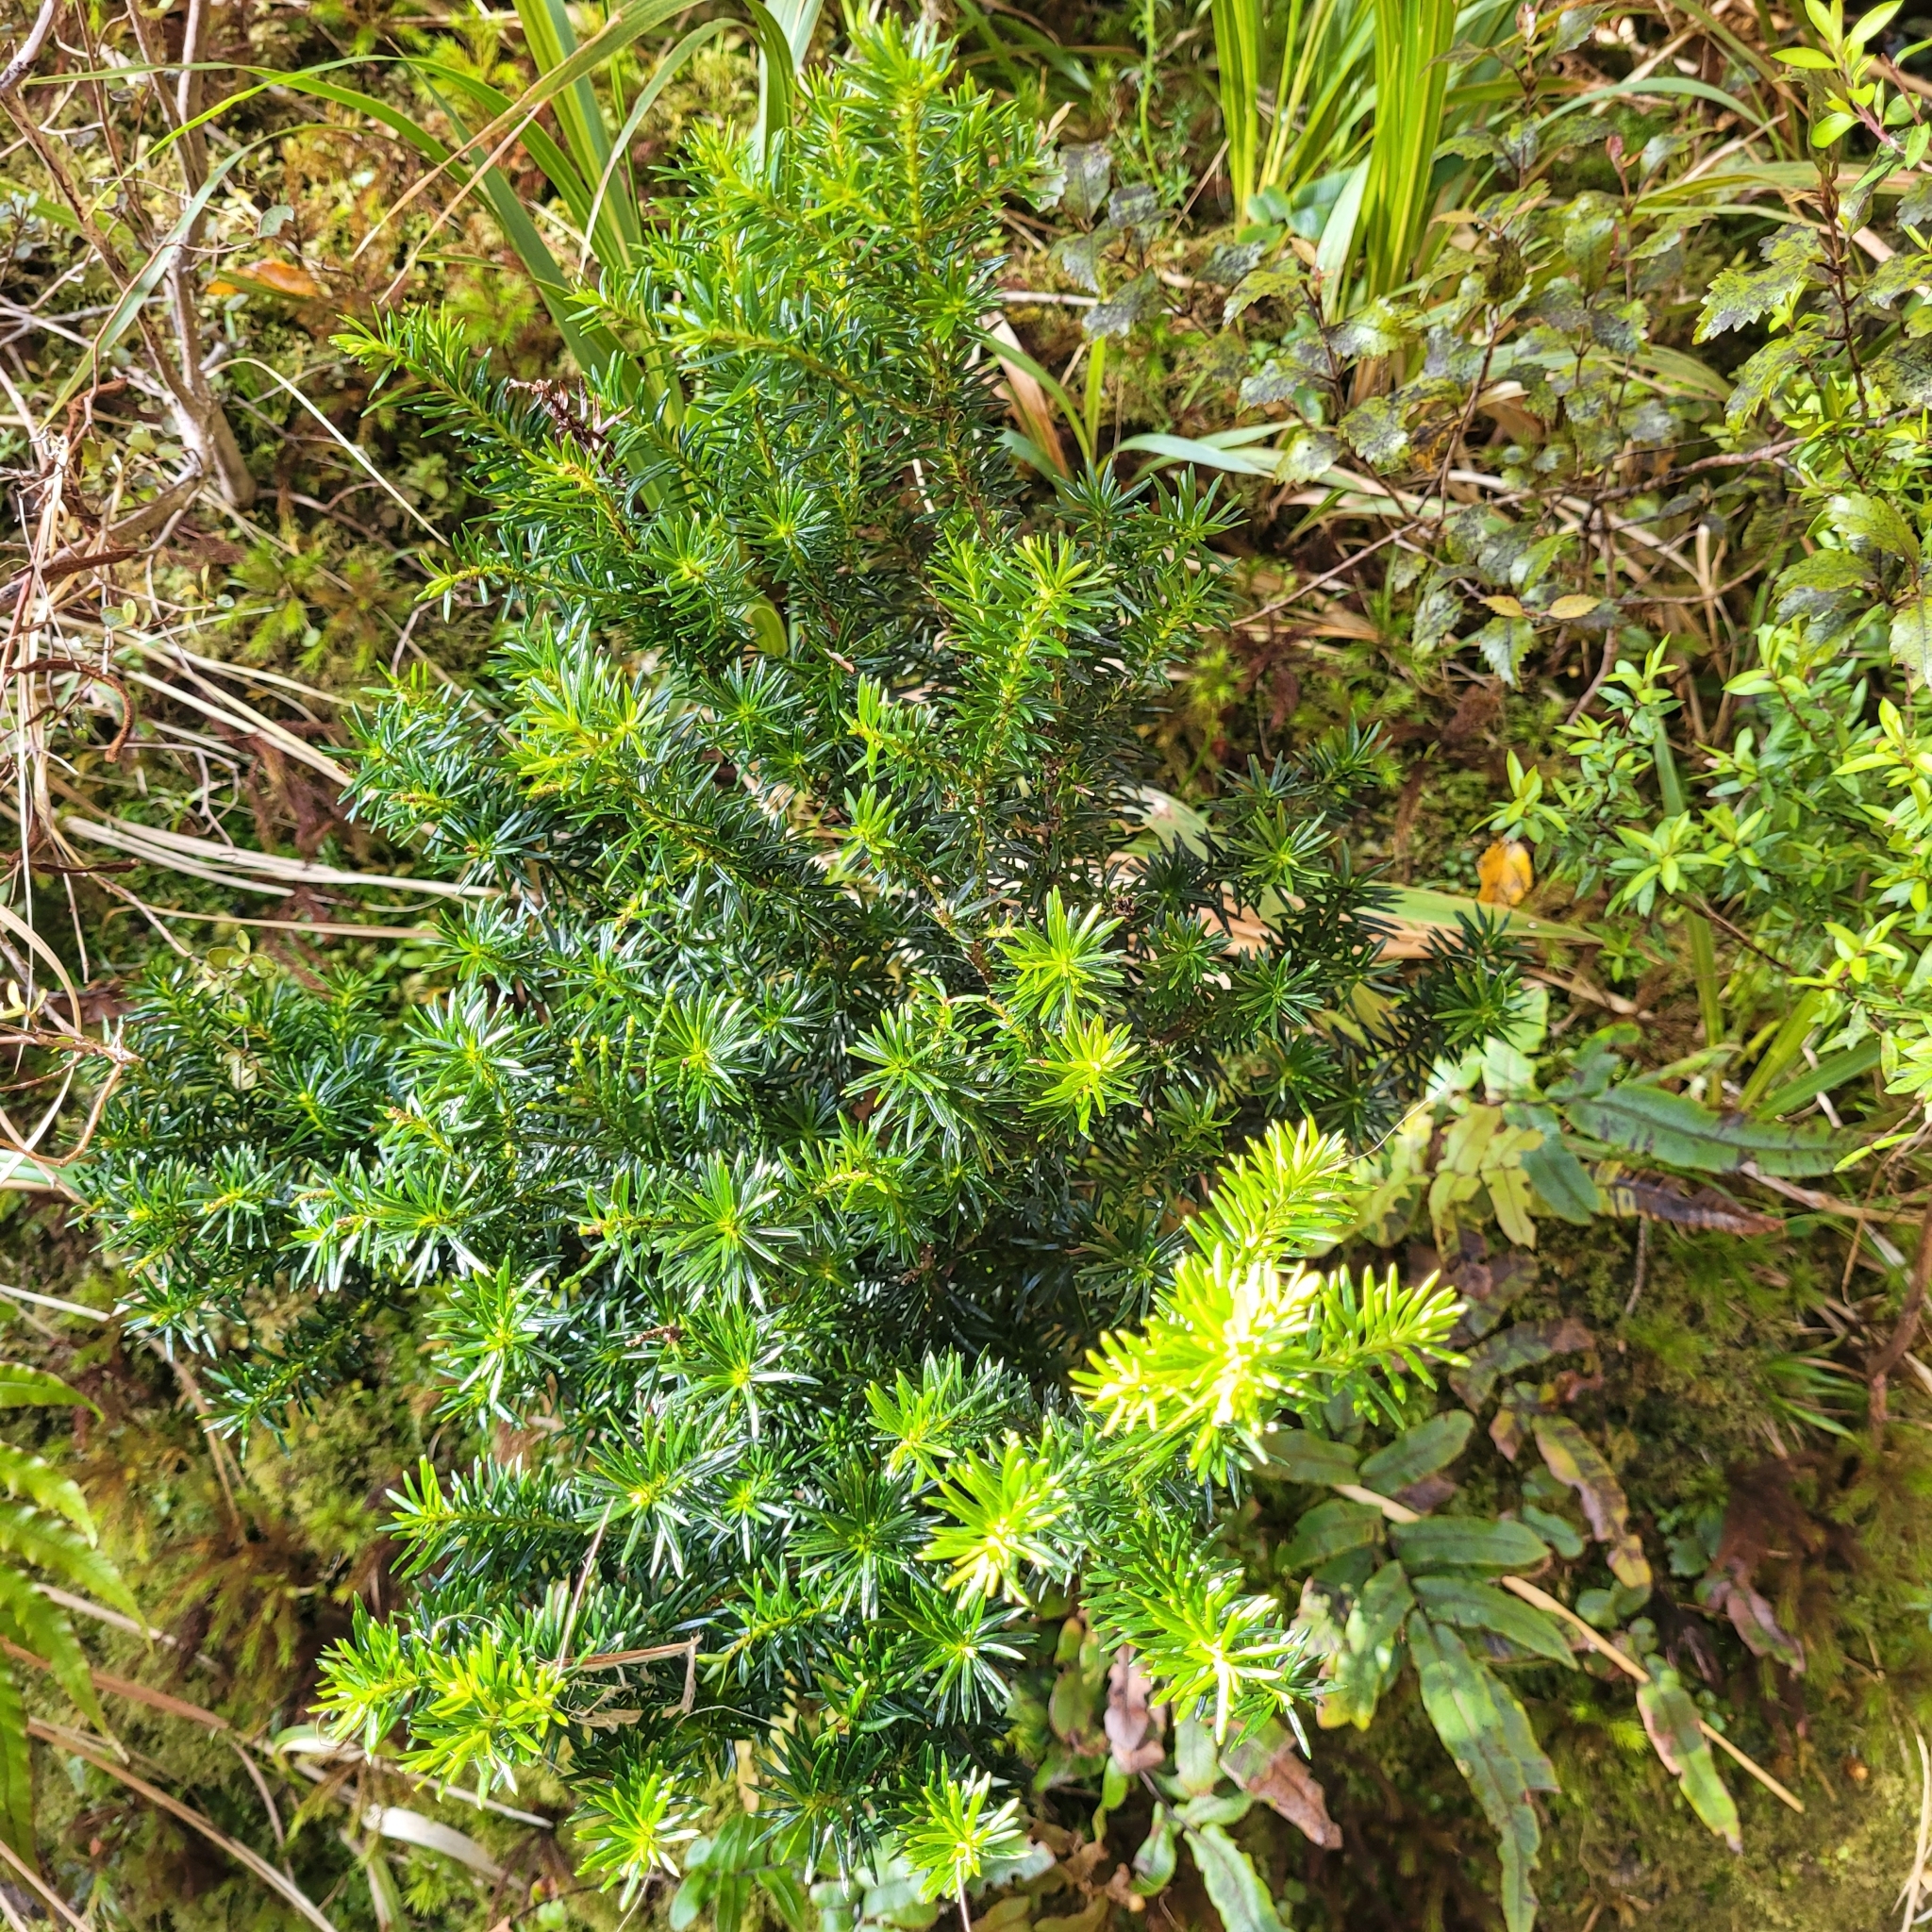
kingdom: Plantae
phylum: Tracheophyta
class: Magnoliopsida
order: Ericales
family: Ericaceae
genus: Leptecophylla
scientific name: Leptecophylla juniperina
